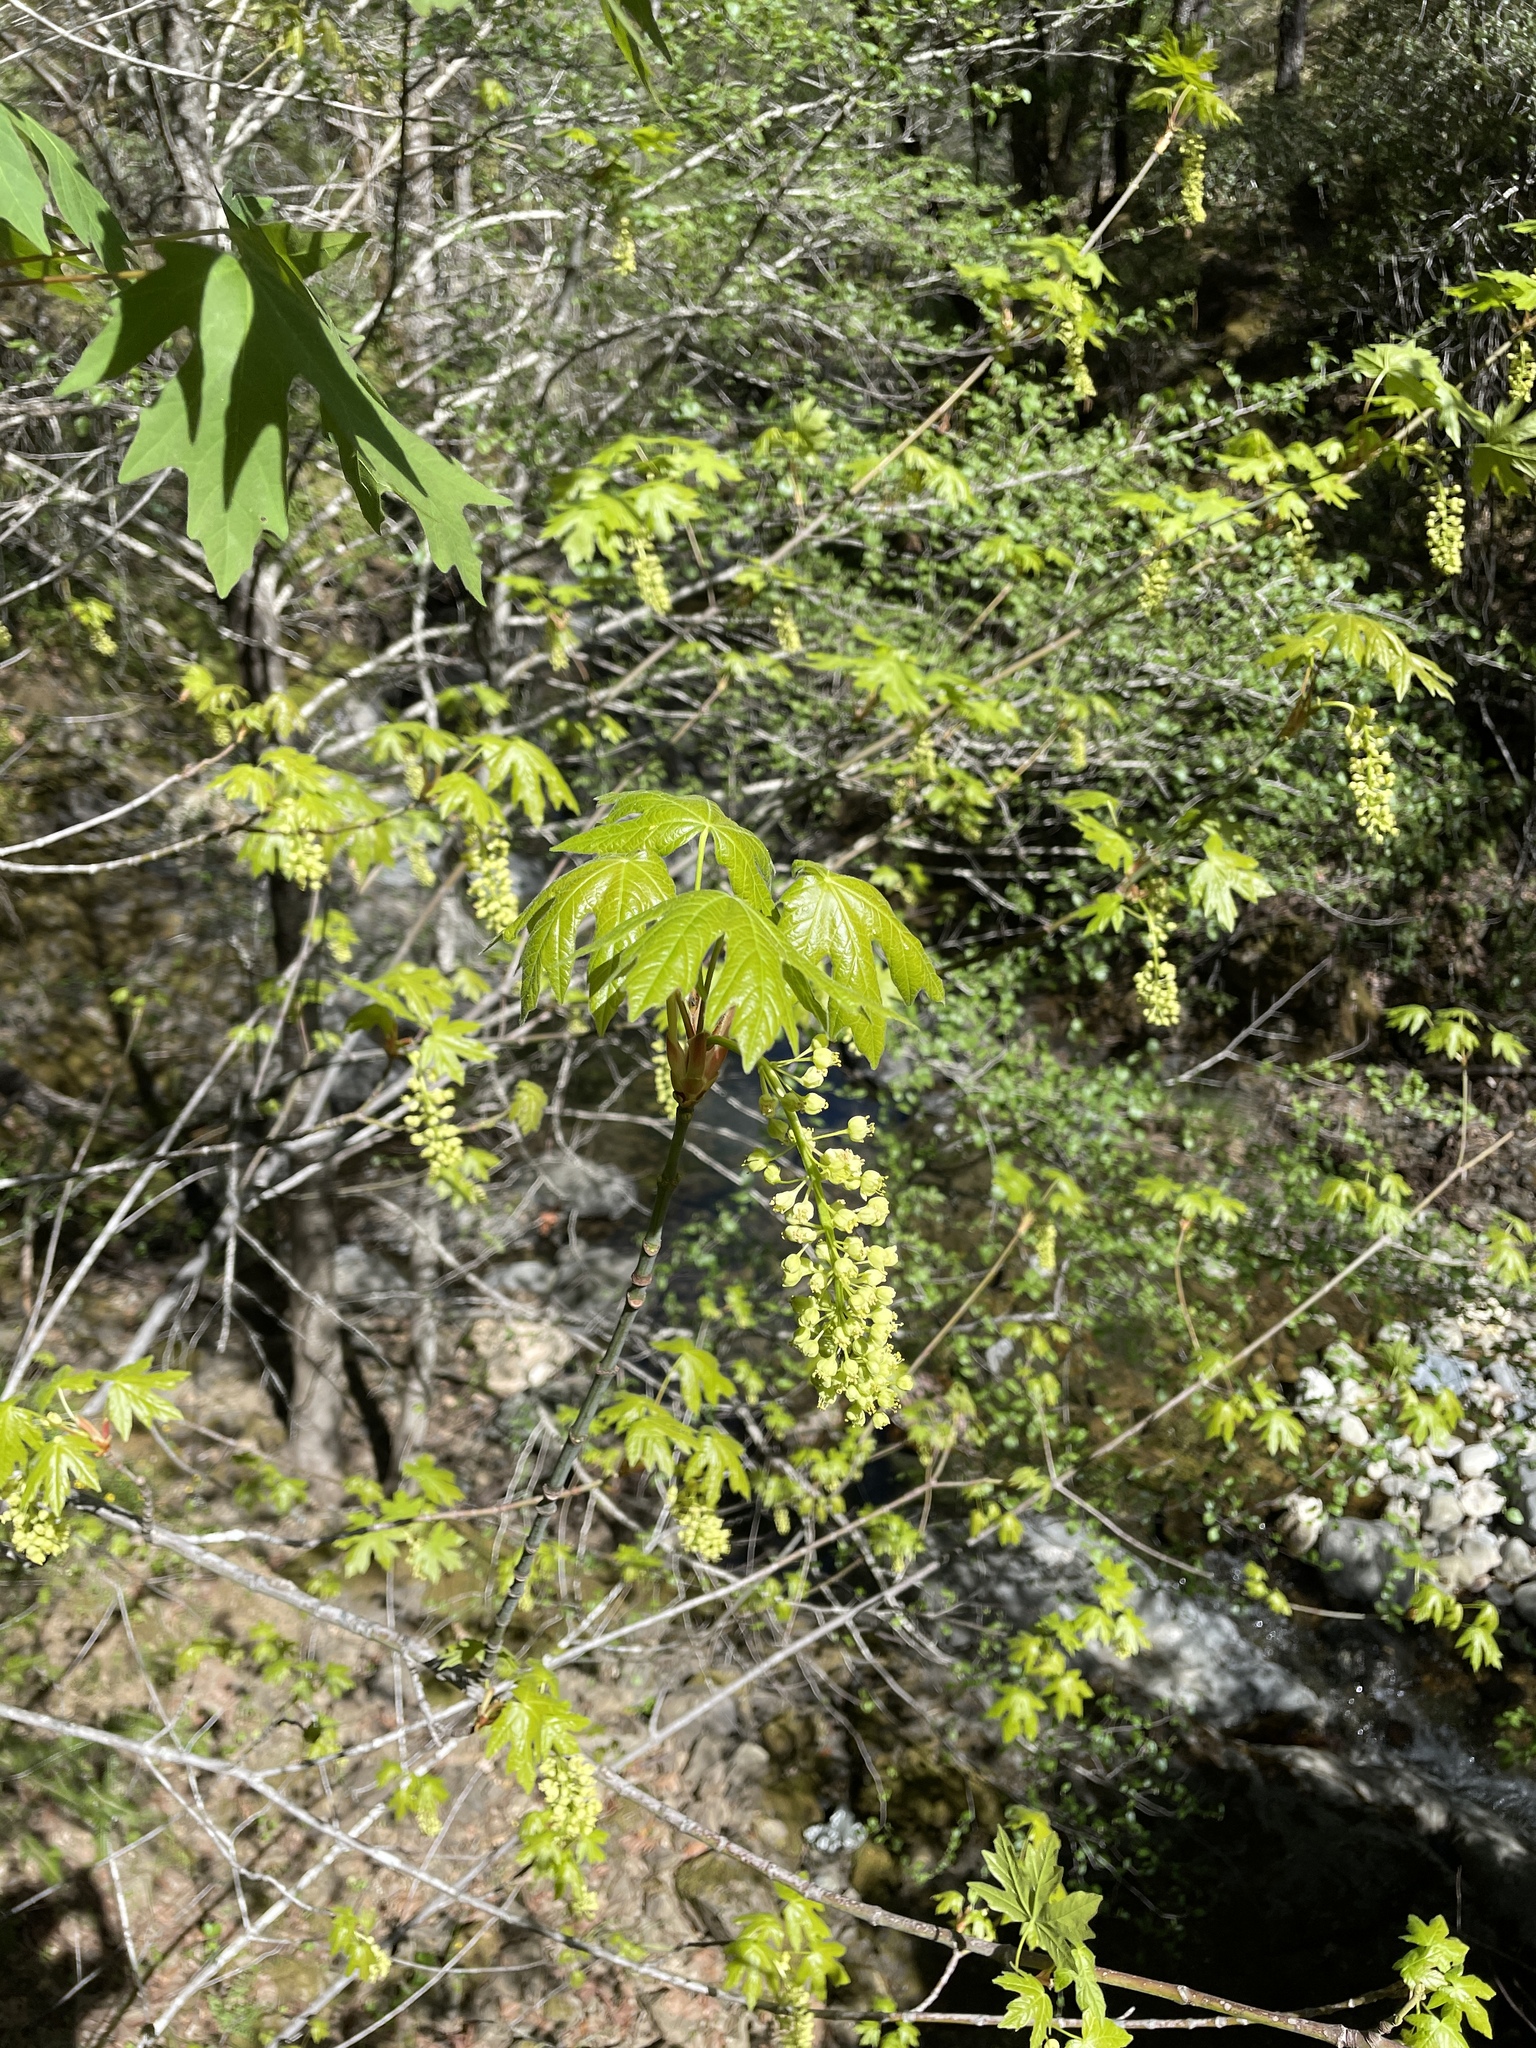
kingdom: Plantae
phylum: Tracheophyta
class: Magnoliopsida
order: Sapindales
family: Sapindaceae
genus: Acer
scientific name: Acer macrophyllum
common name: Oregon maple
